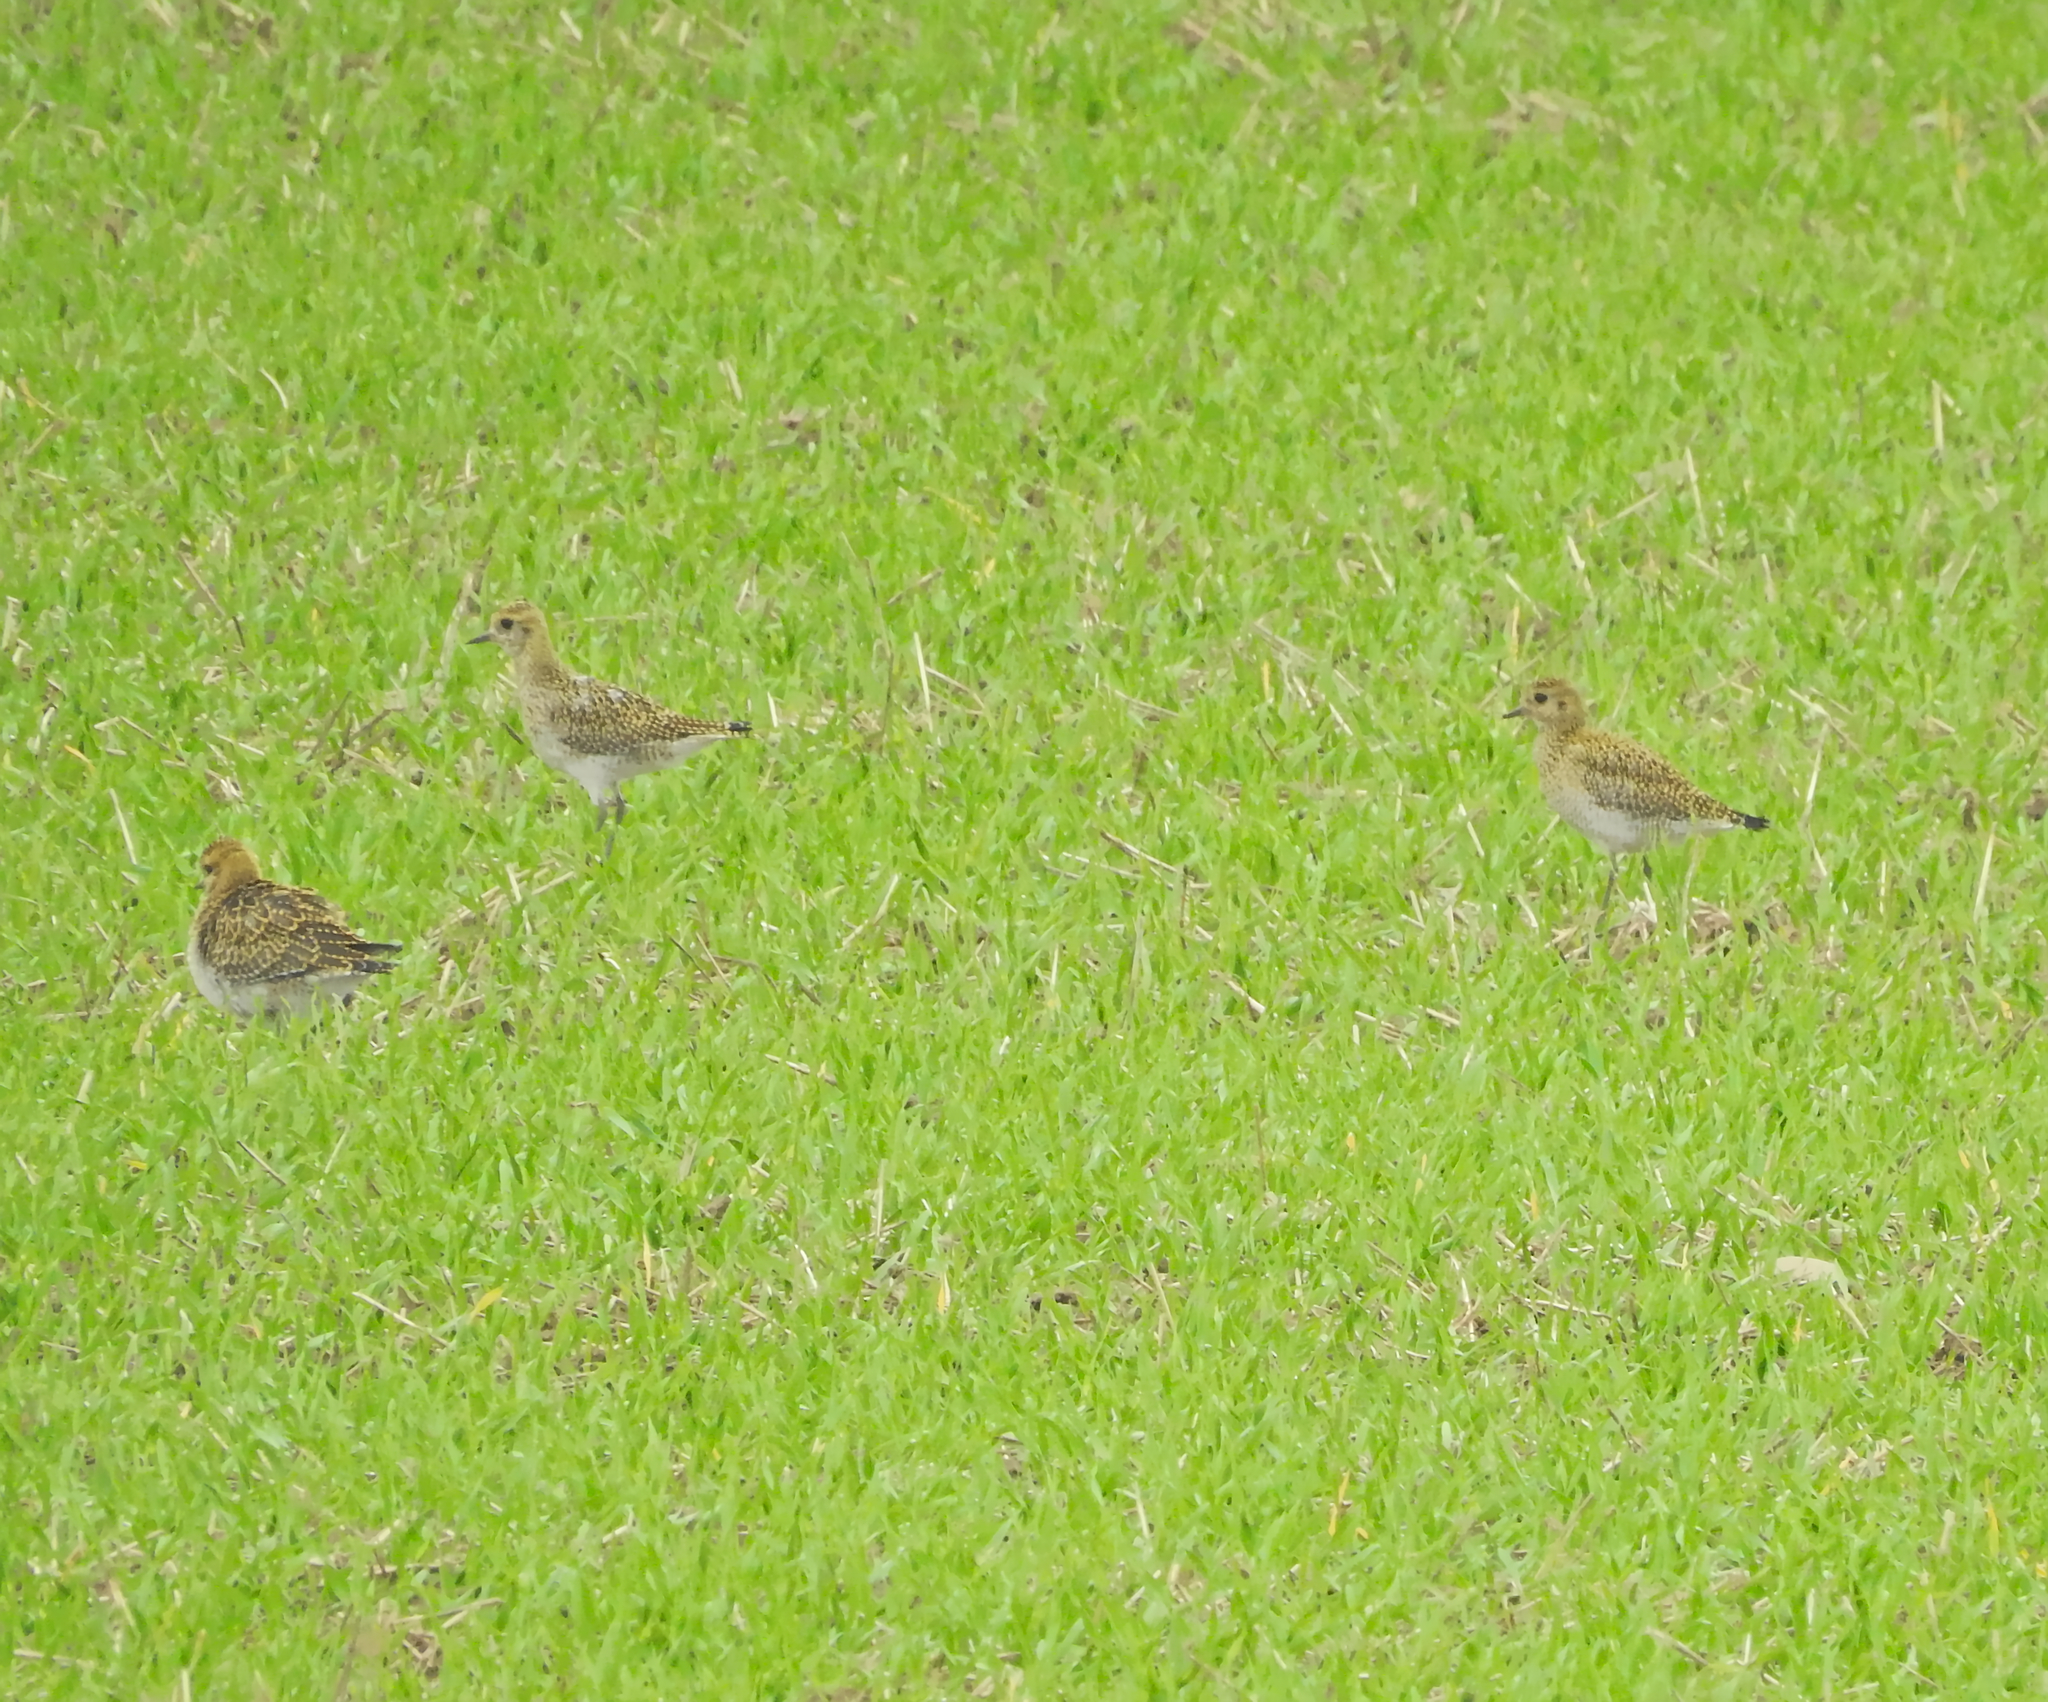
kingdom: Animalia
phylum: Chordata
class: Aves
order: Charadriiformes
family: Charadriidae
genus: Pluvialis
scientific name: Pluvialis apricaria
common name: European golden plover
